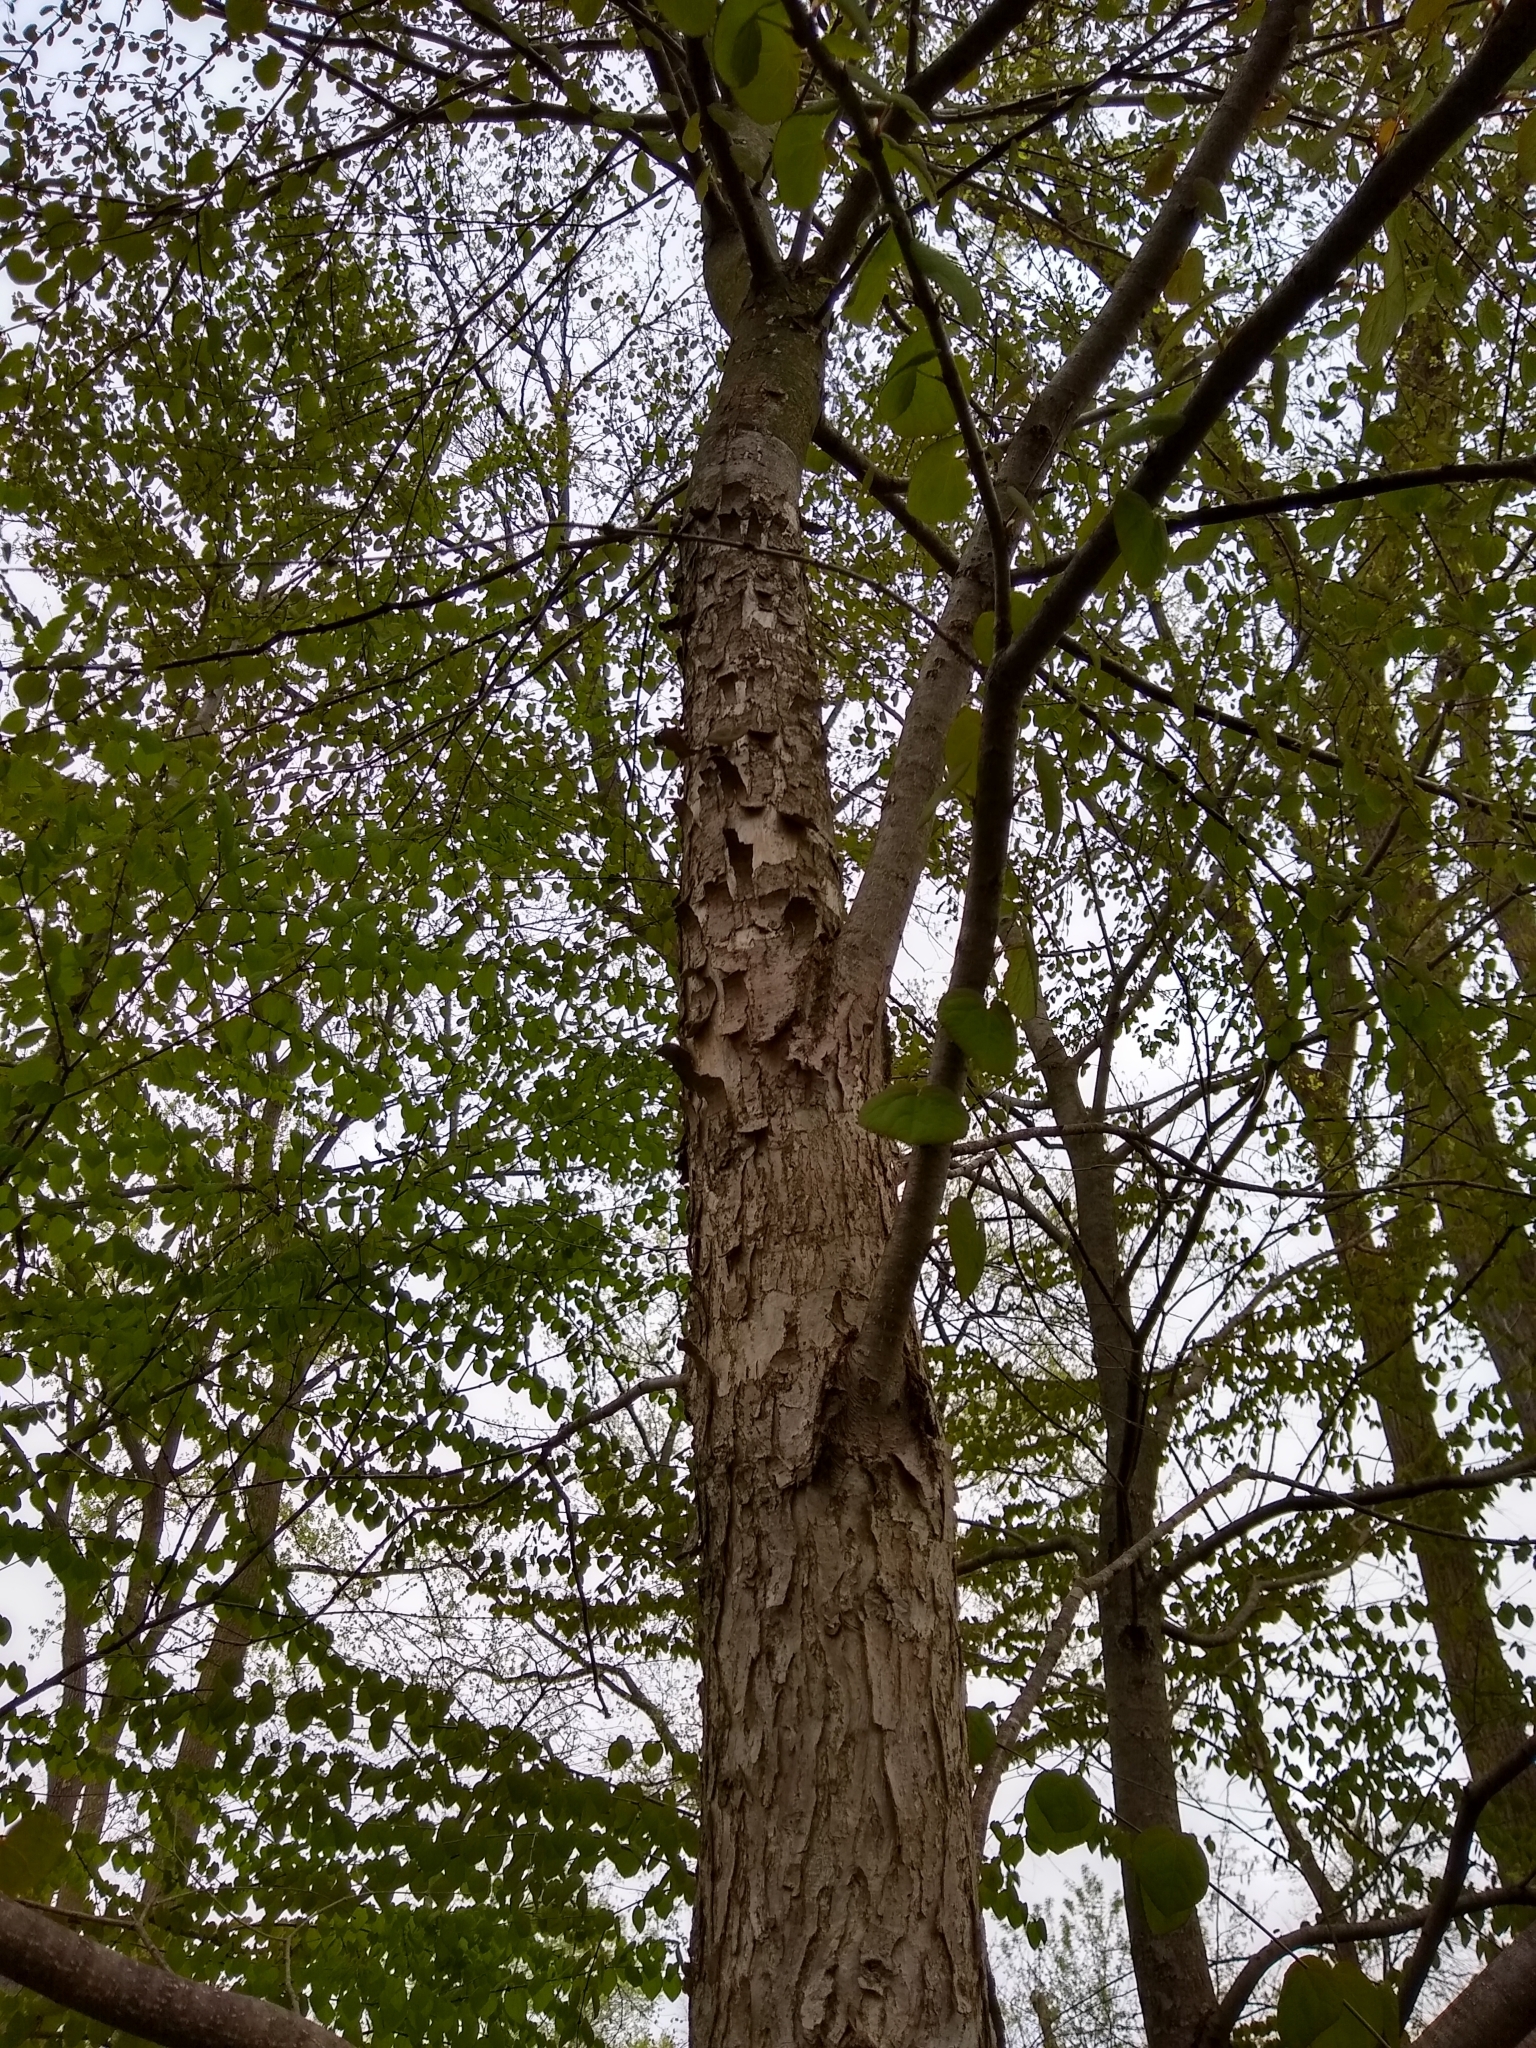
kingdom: Plantae
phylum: Tracheophyta
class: Magnoliopsida
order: Saxifragales
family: Cercidiphyllaceae
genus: Cercidiphyllum
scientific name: Cercidiphyllum japonicum
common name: Katsura tree
